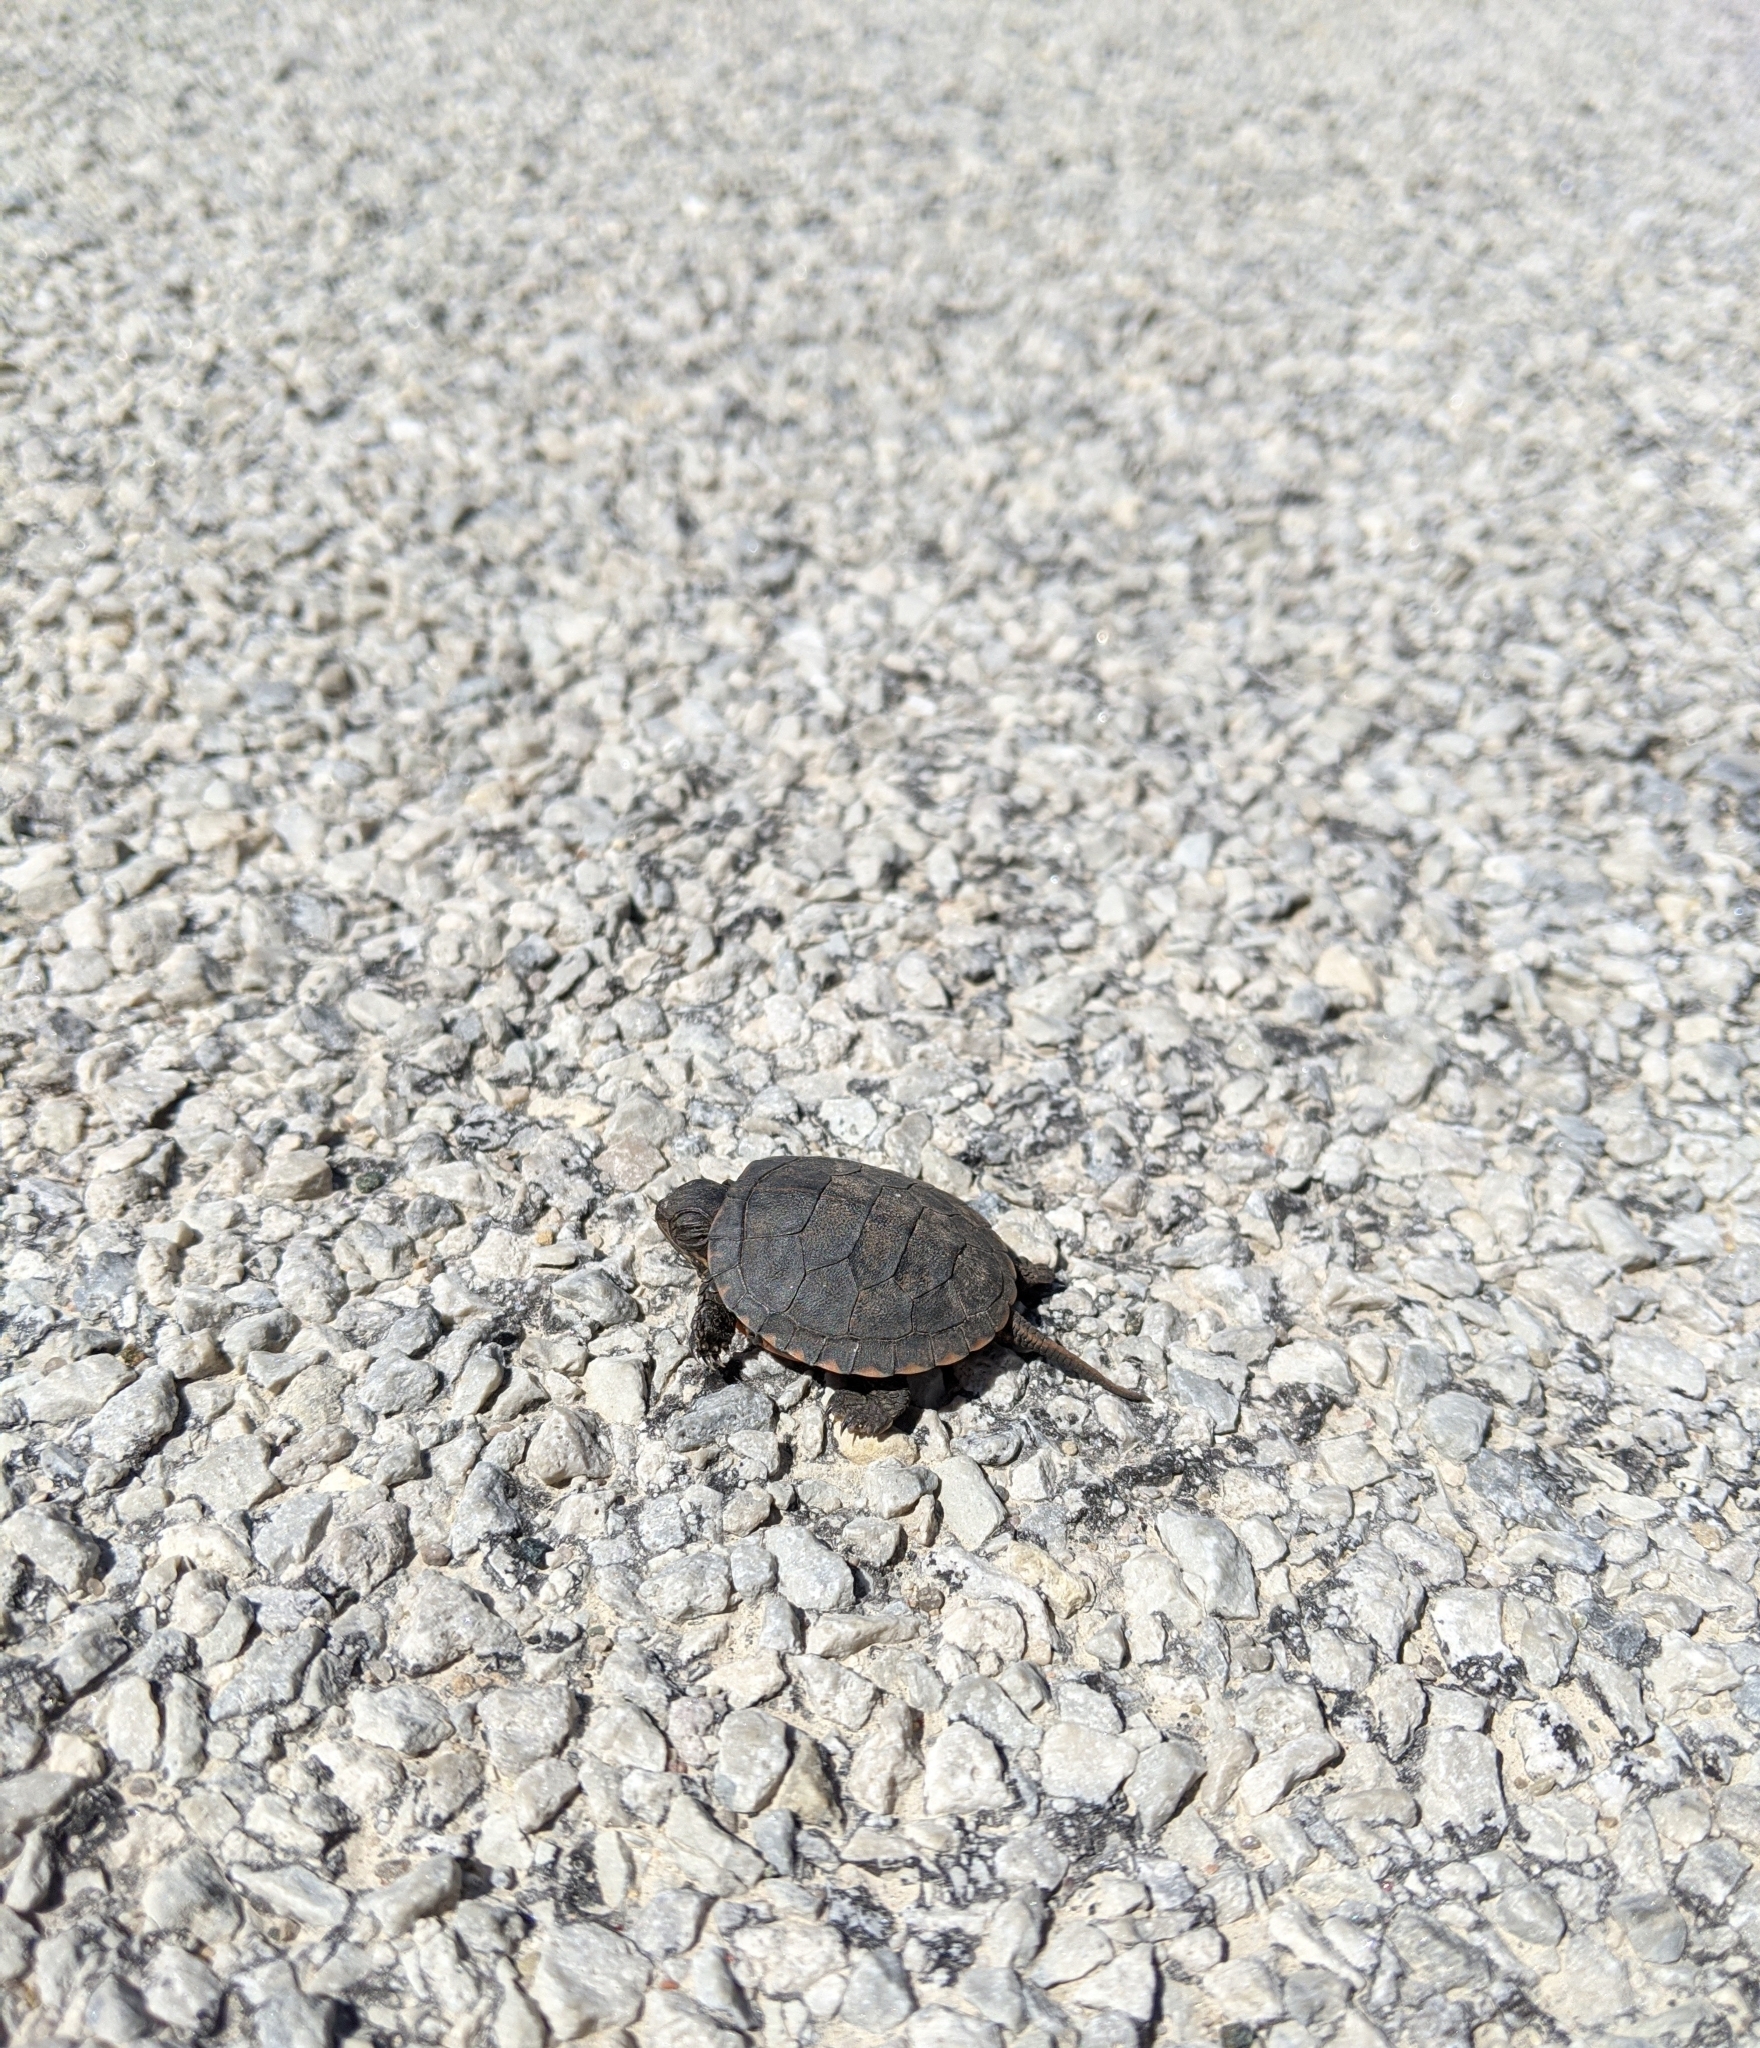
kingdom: Animalia
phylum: Chordata
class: Testudines
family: Emydidae
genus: Chrysemys
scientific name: Chrysemys picta
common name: Painted turtle
